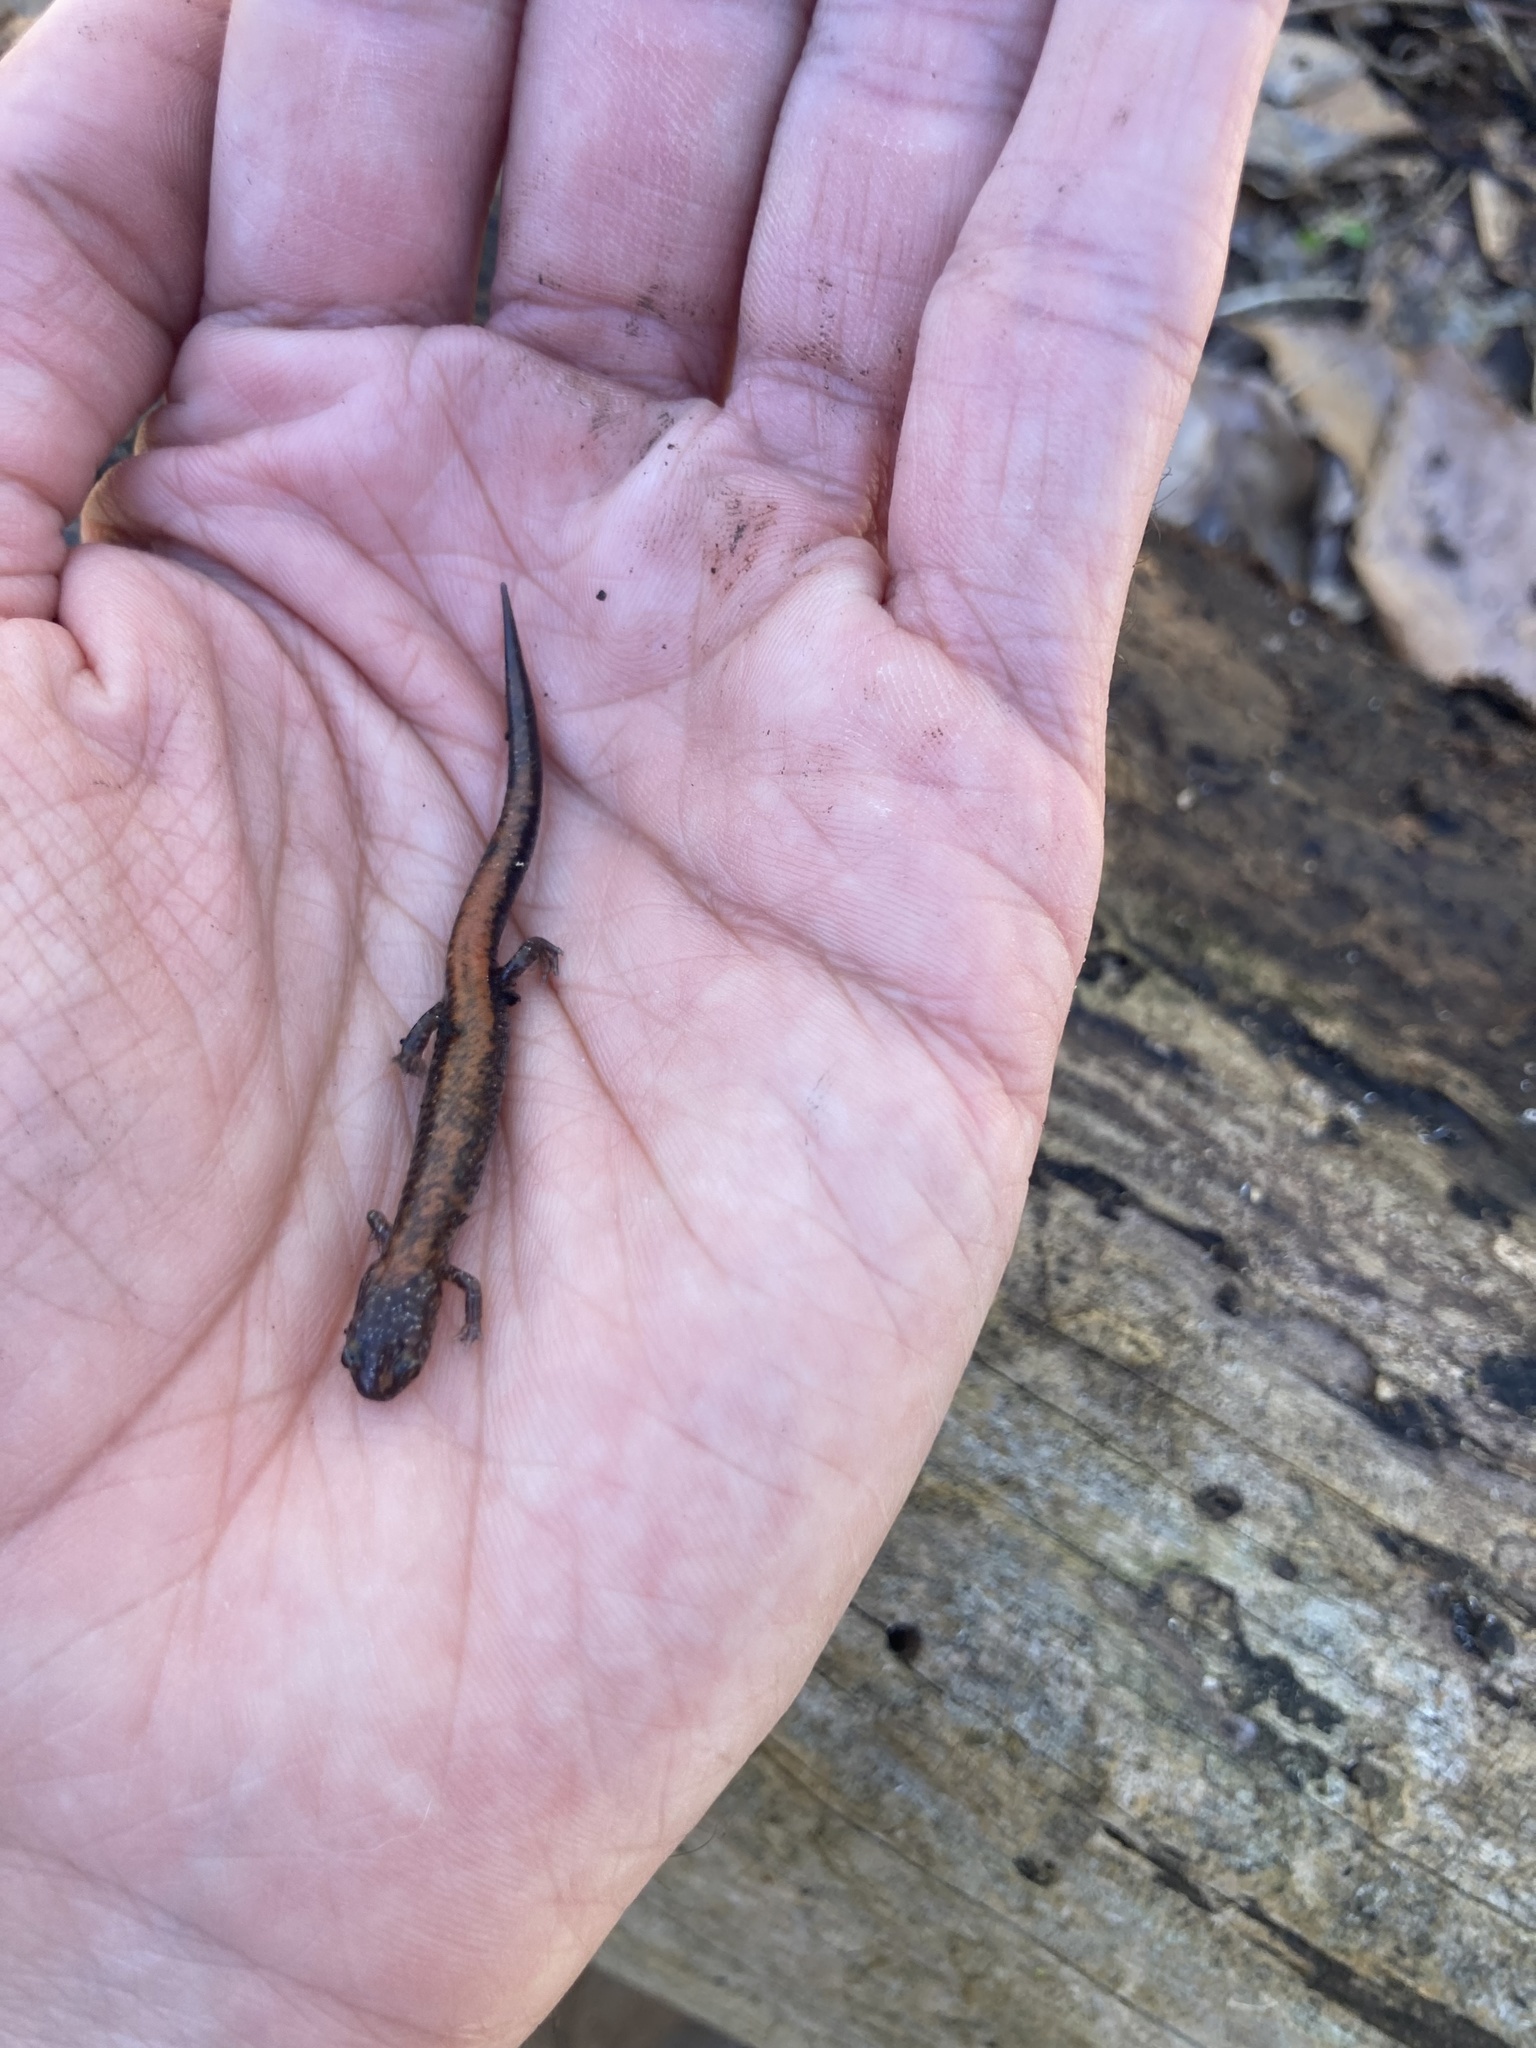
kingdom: Animalia
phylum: Chordata
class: Amphibia
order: Caudata
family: Plethodontidae
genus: Plethodon
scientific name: Plethodon cinereus
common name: Redback salamander
